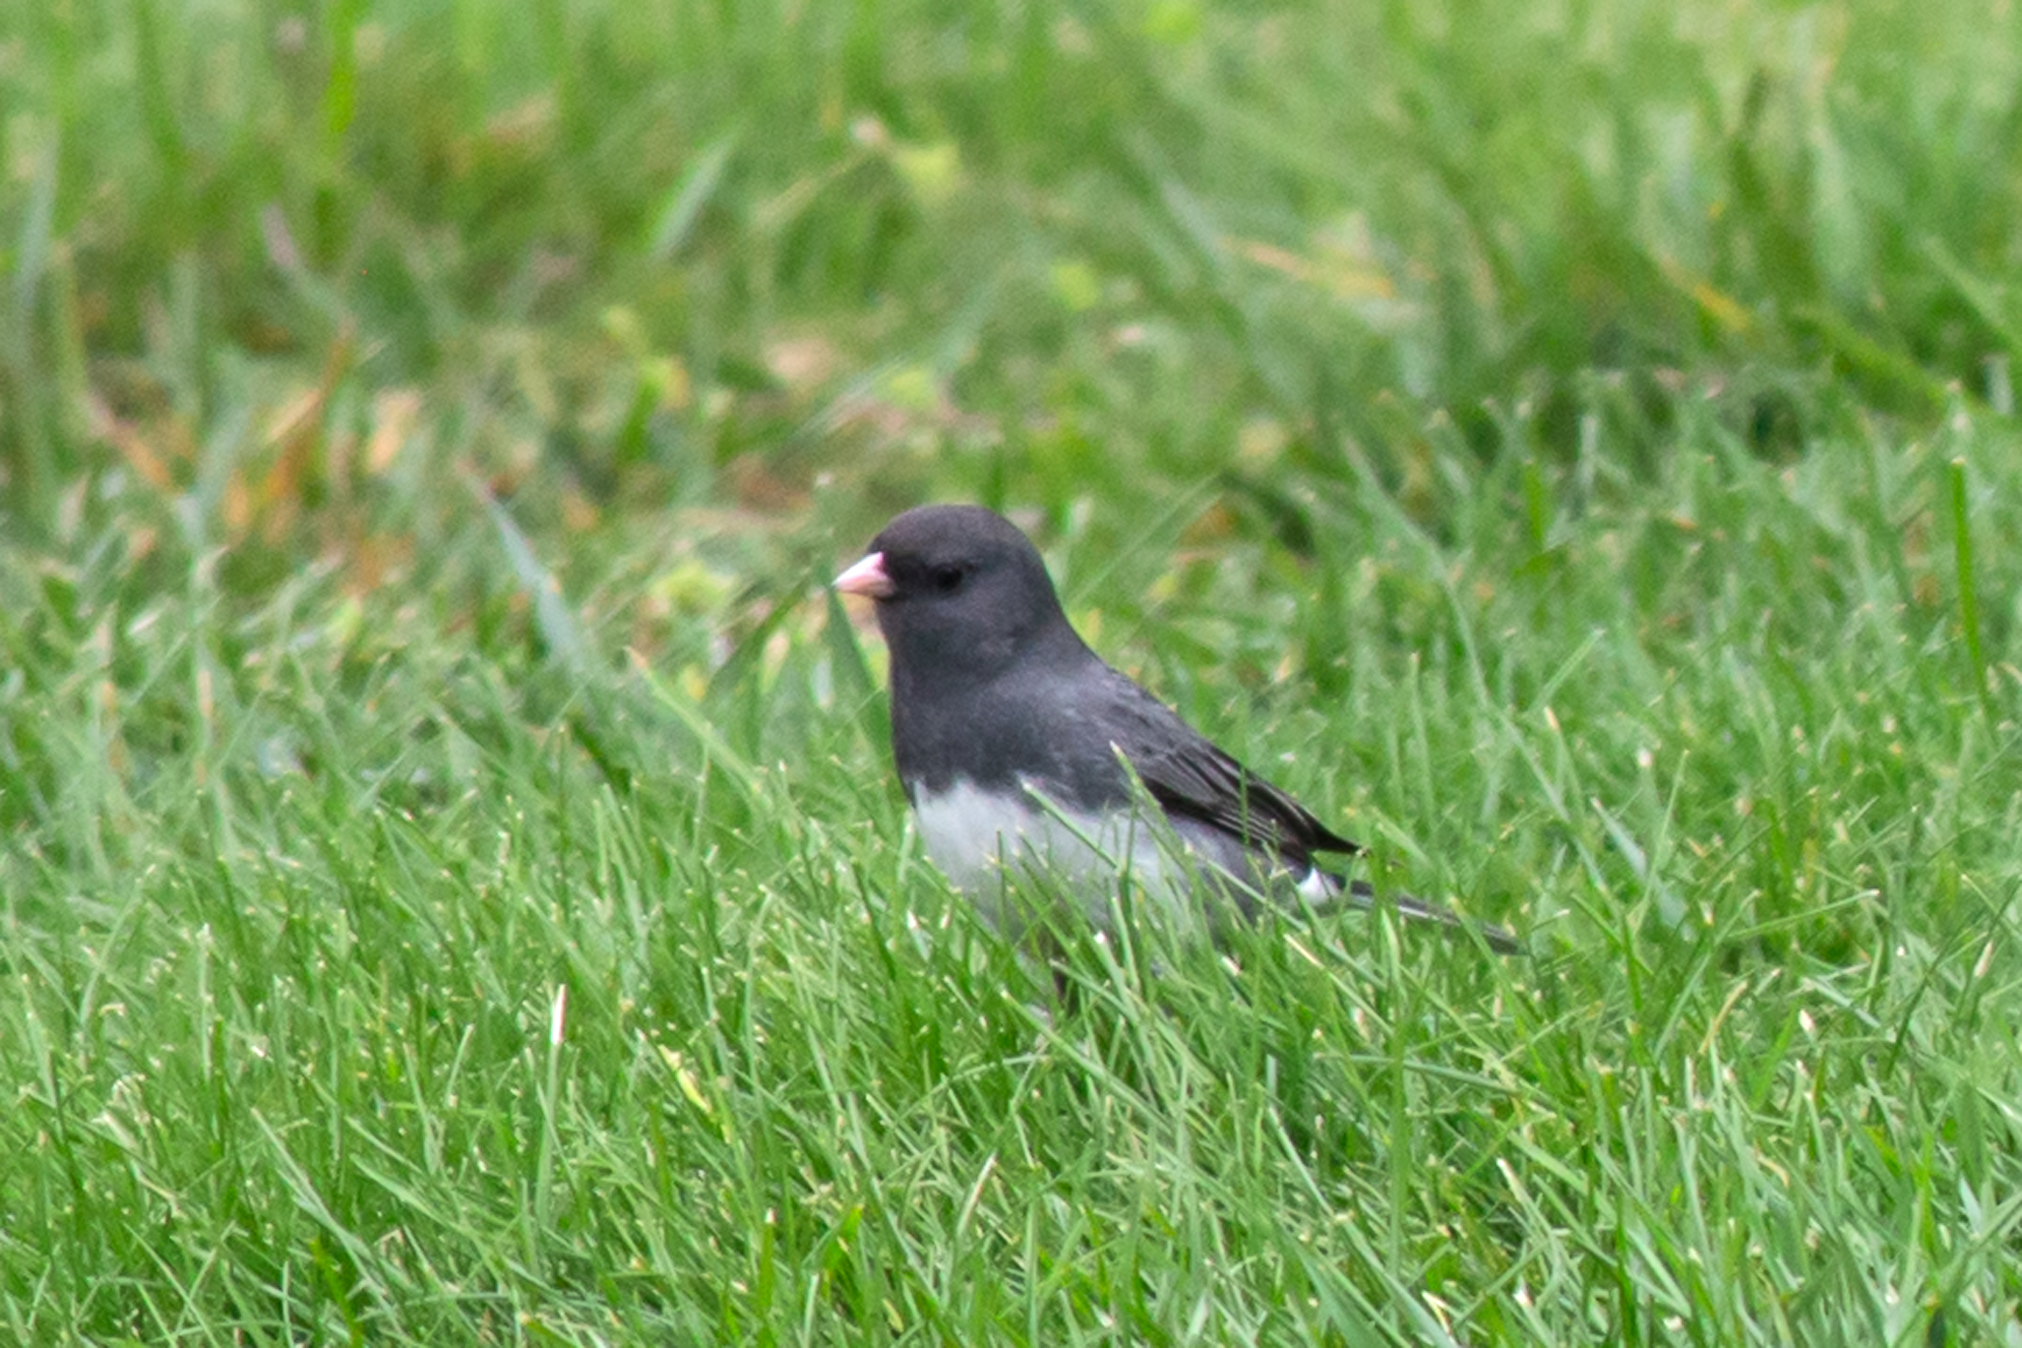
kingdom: Animalia
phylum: Chordata
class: Aves
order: Passeriformes
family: Passerellidae
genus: Junco
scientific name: Junco hyemalis
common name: Dark-eyed junco
